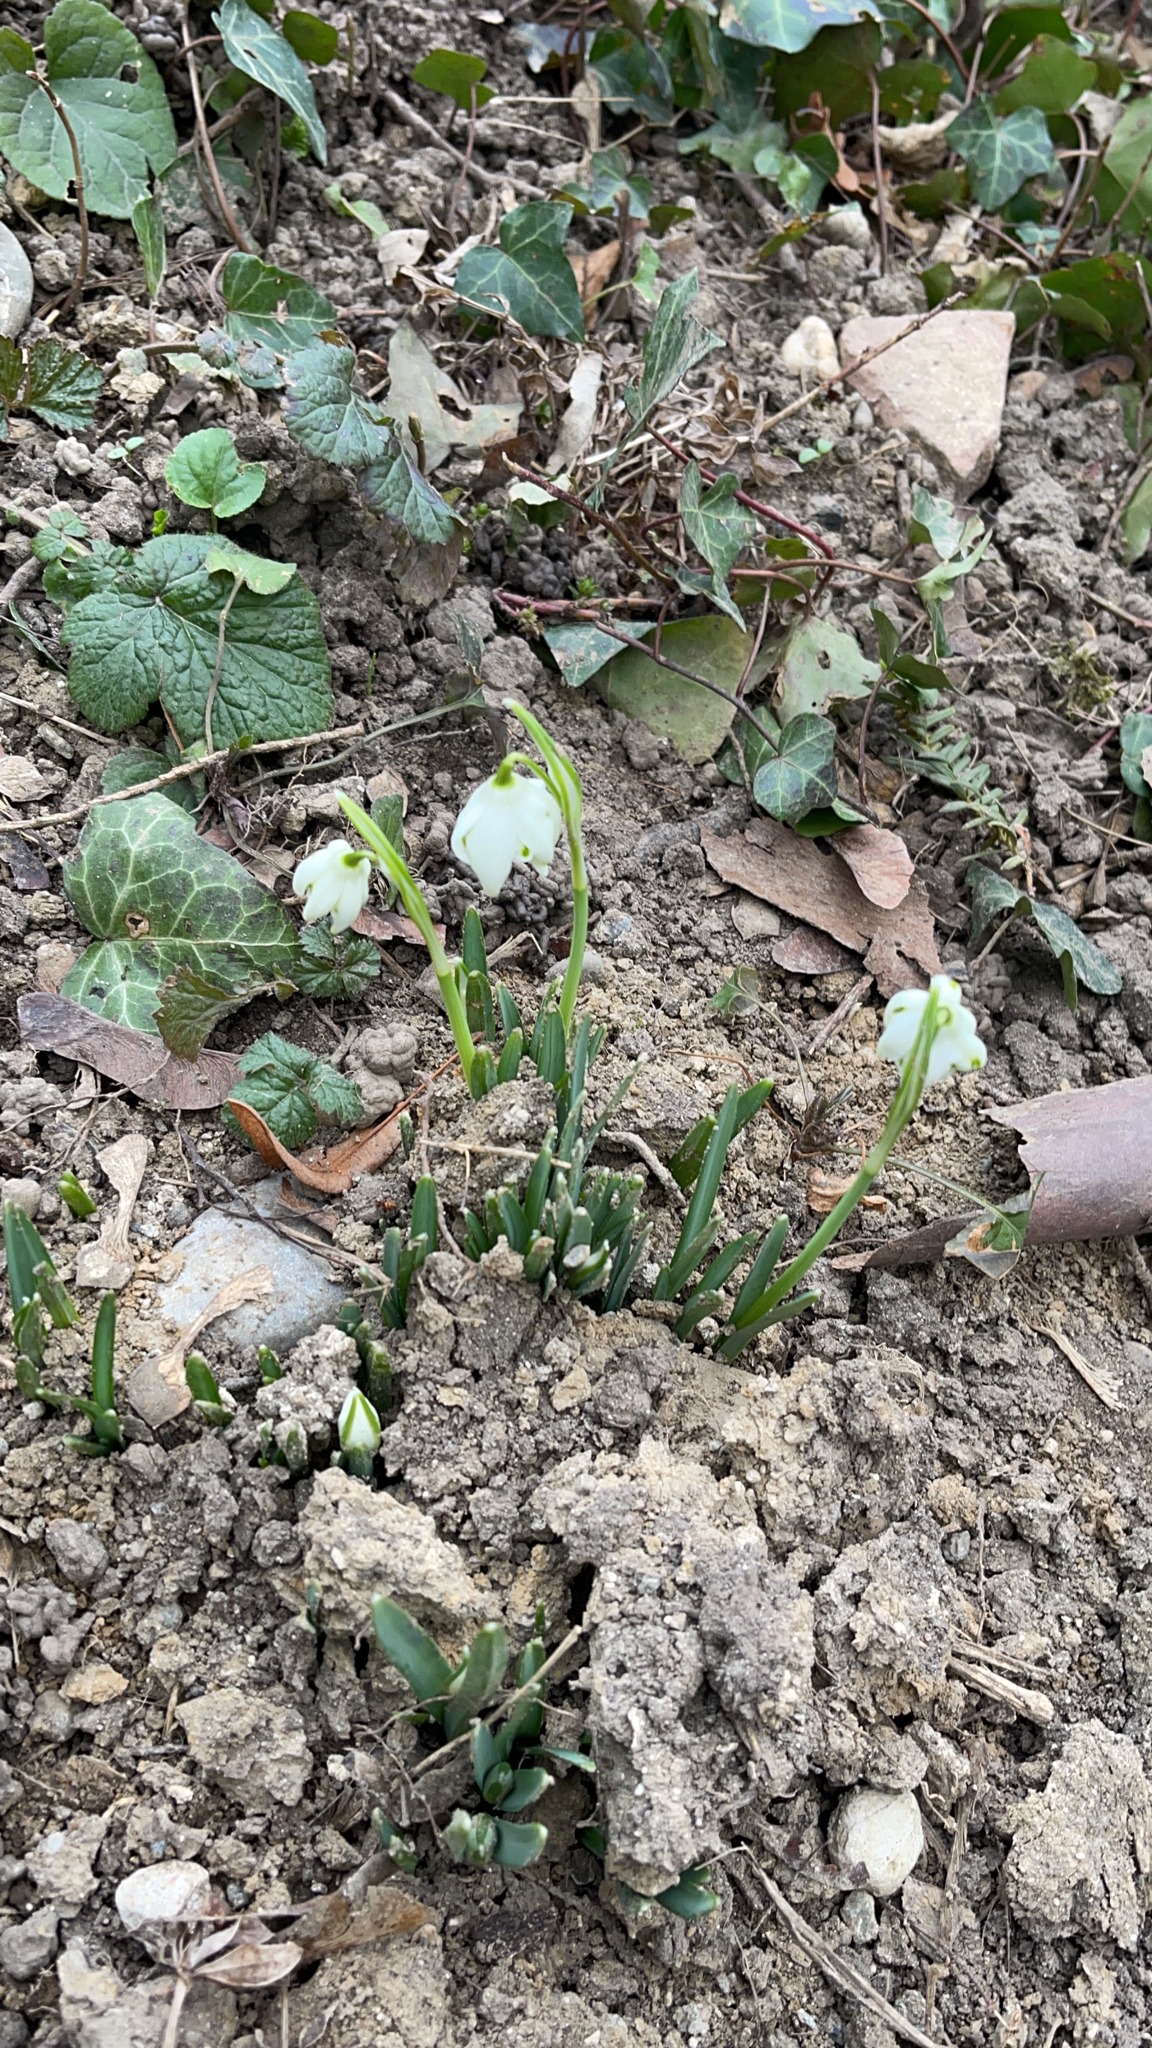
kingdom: Plantae
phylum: Tracheophyta
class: Liliopsida
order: Asparagales
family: Amaryllidaceae
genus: Leucojum
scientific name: Leucojum vernum
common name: Spring snowflake
